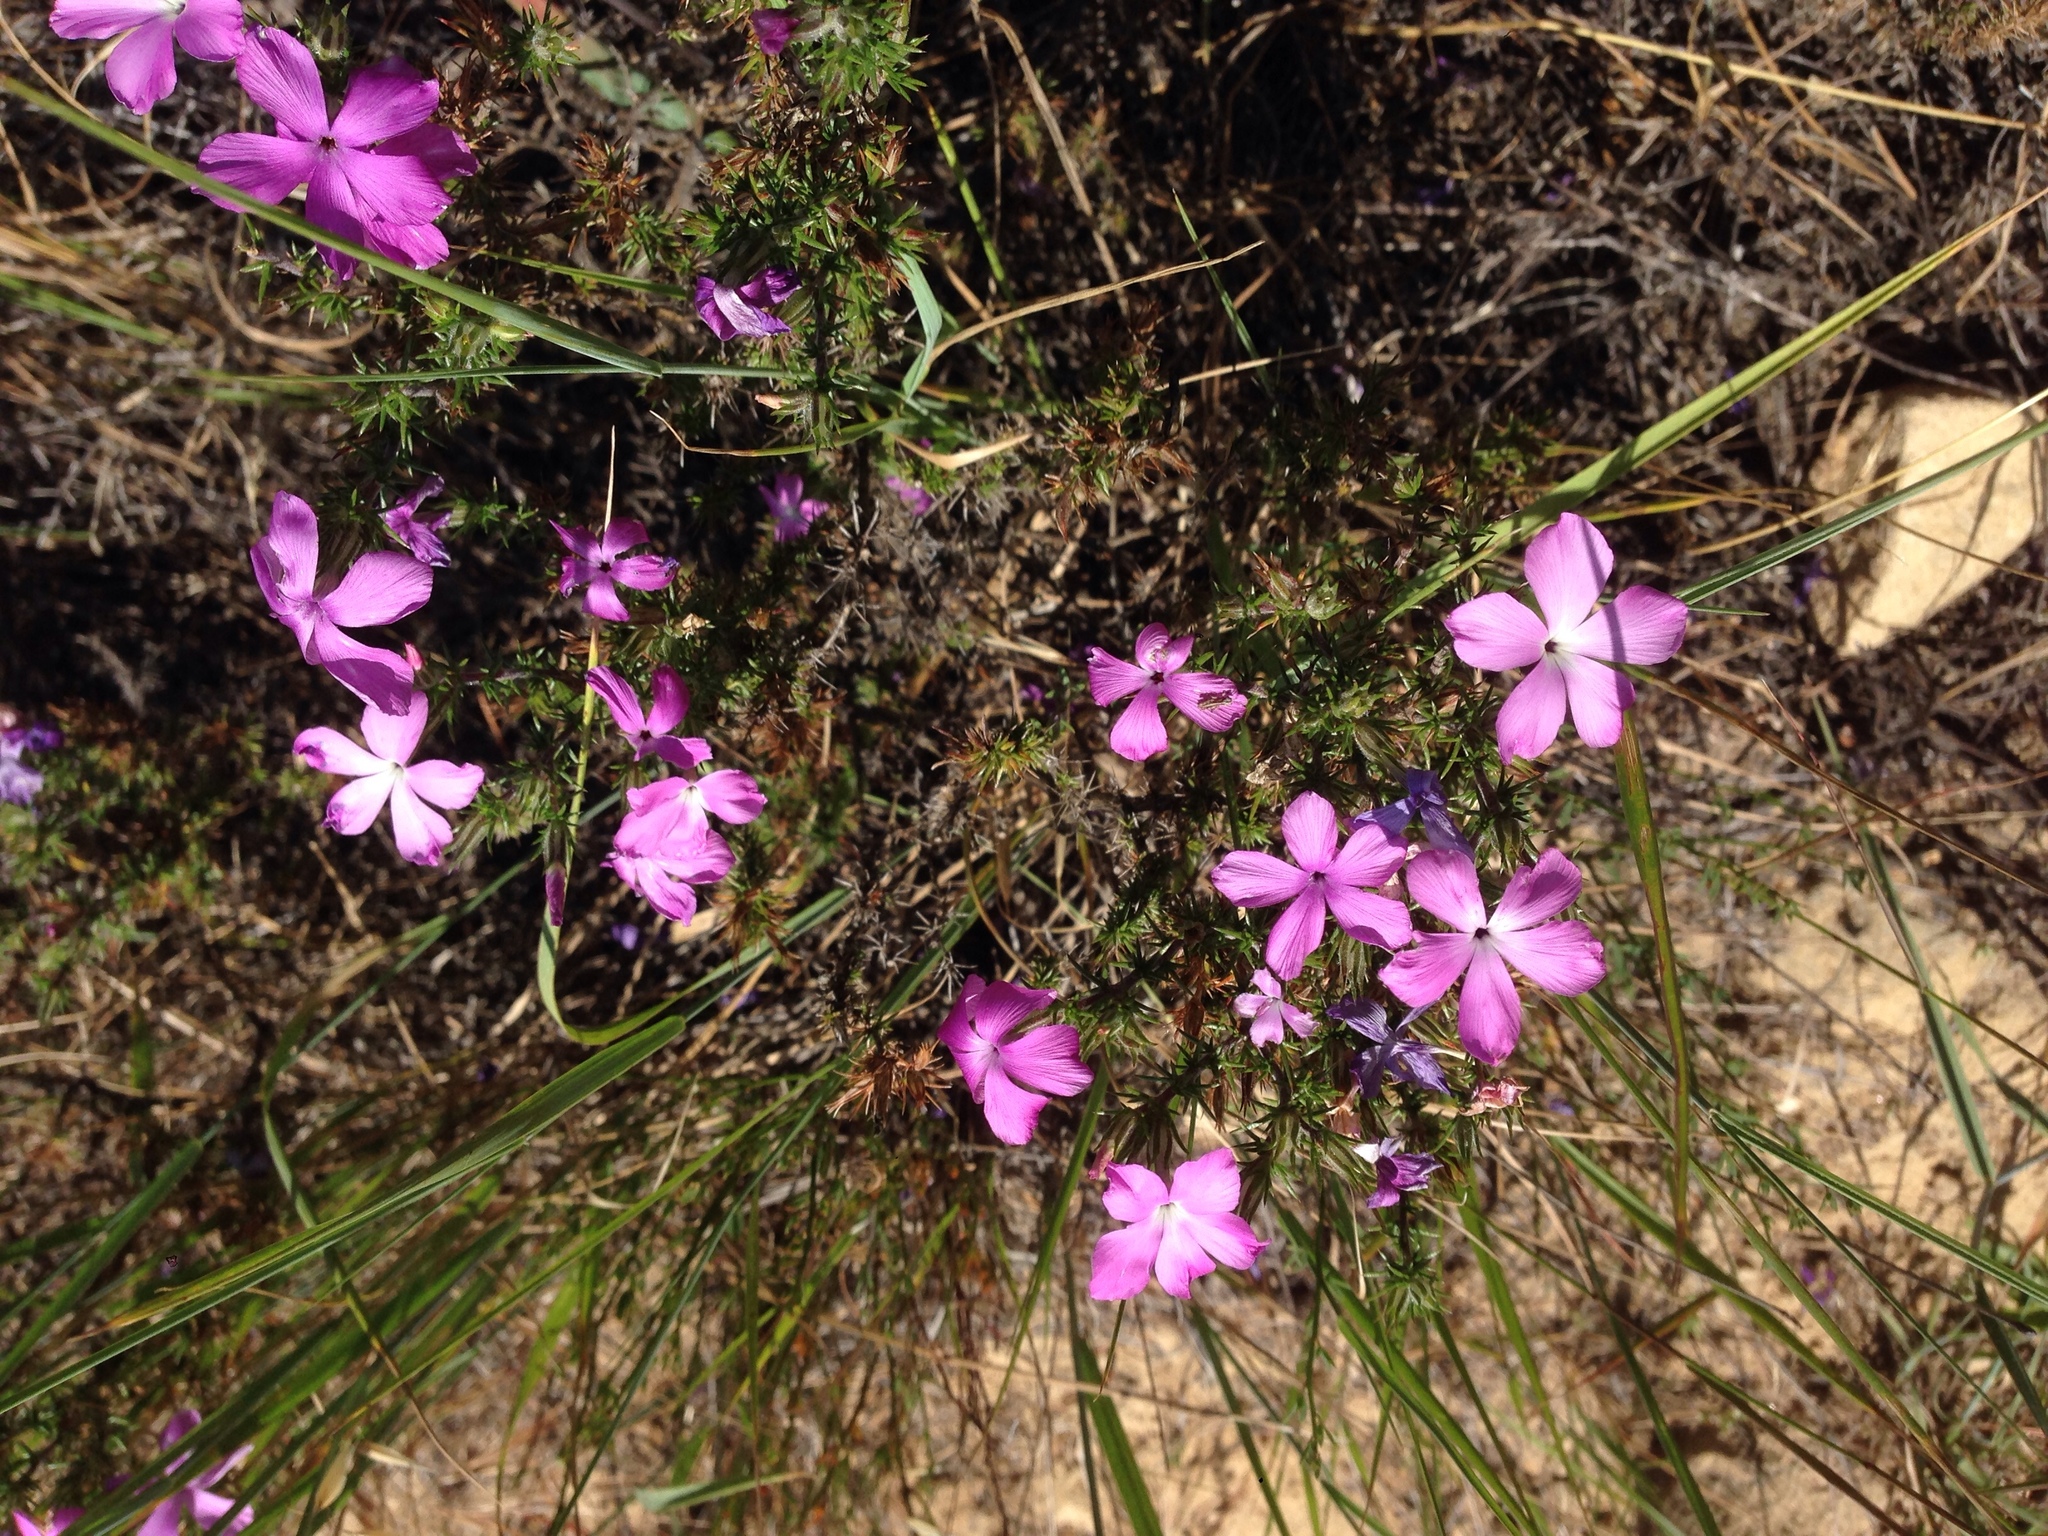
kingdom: Plantae
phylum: Tracheophyta
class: Magnoliopsida
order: Ericales
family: Polemoniaceae
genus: Linanthus
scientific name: Linanthus californicus
